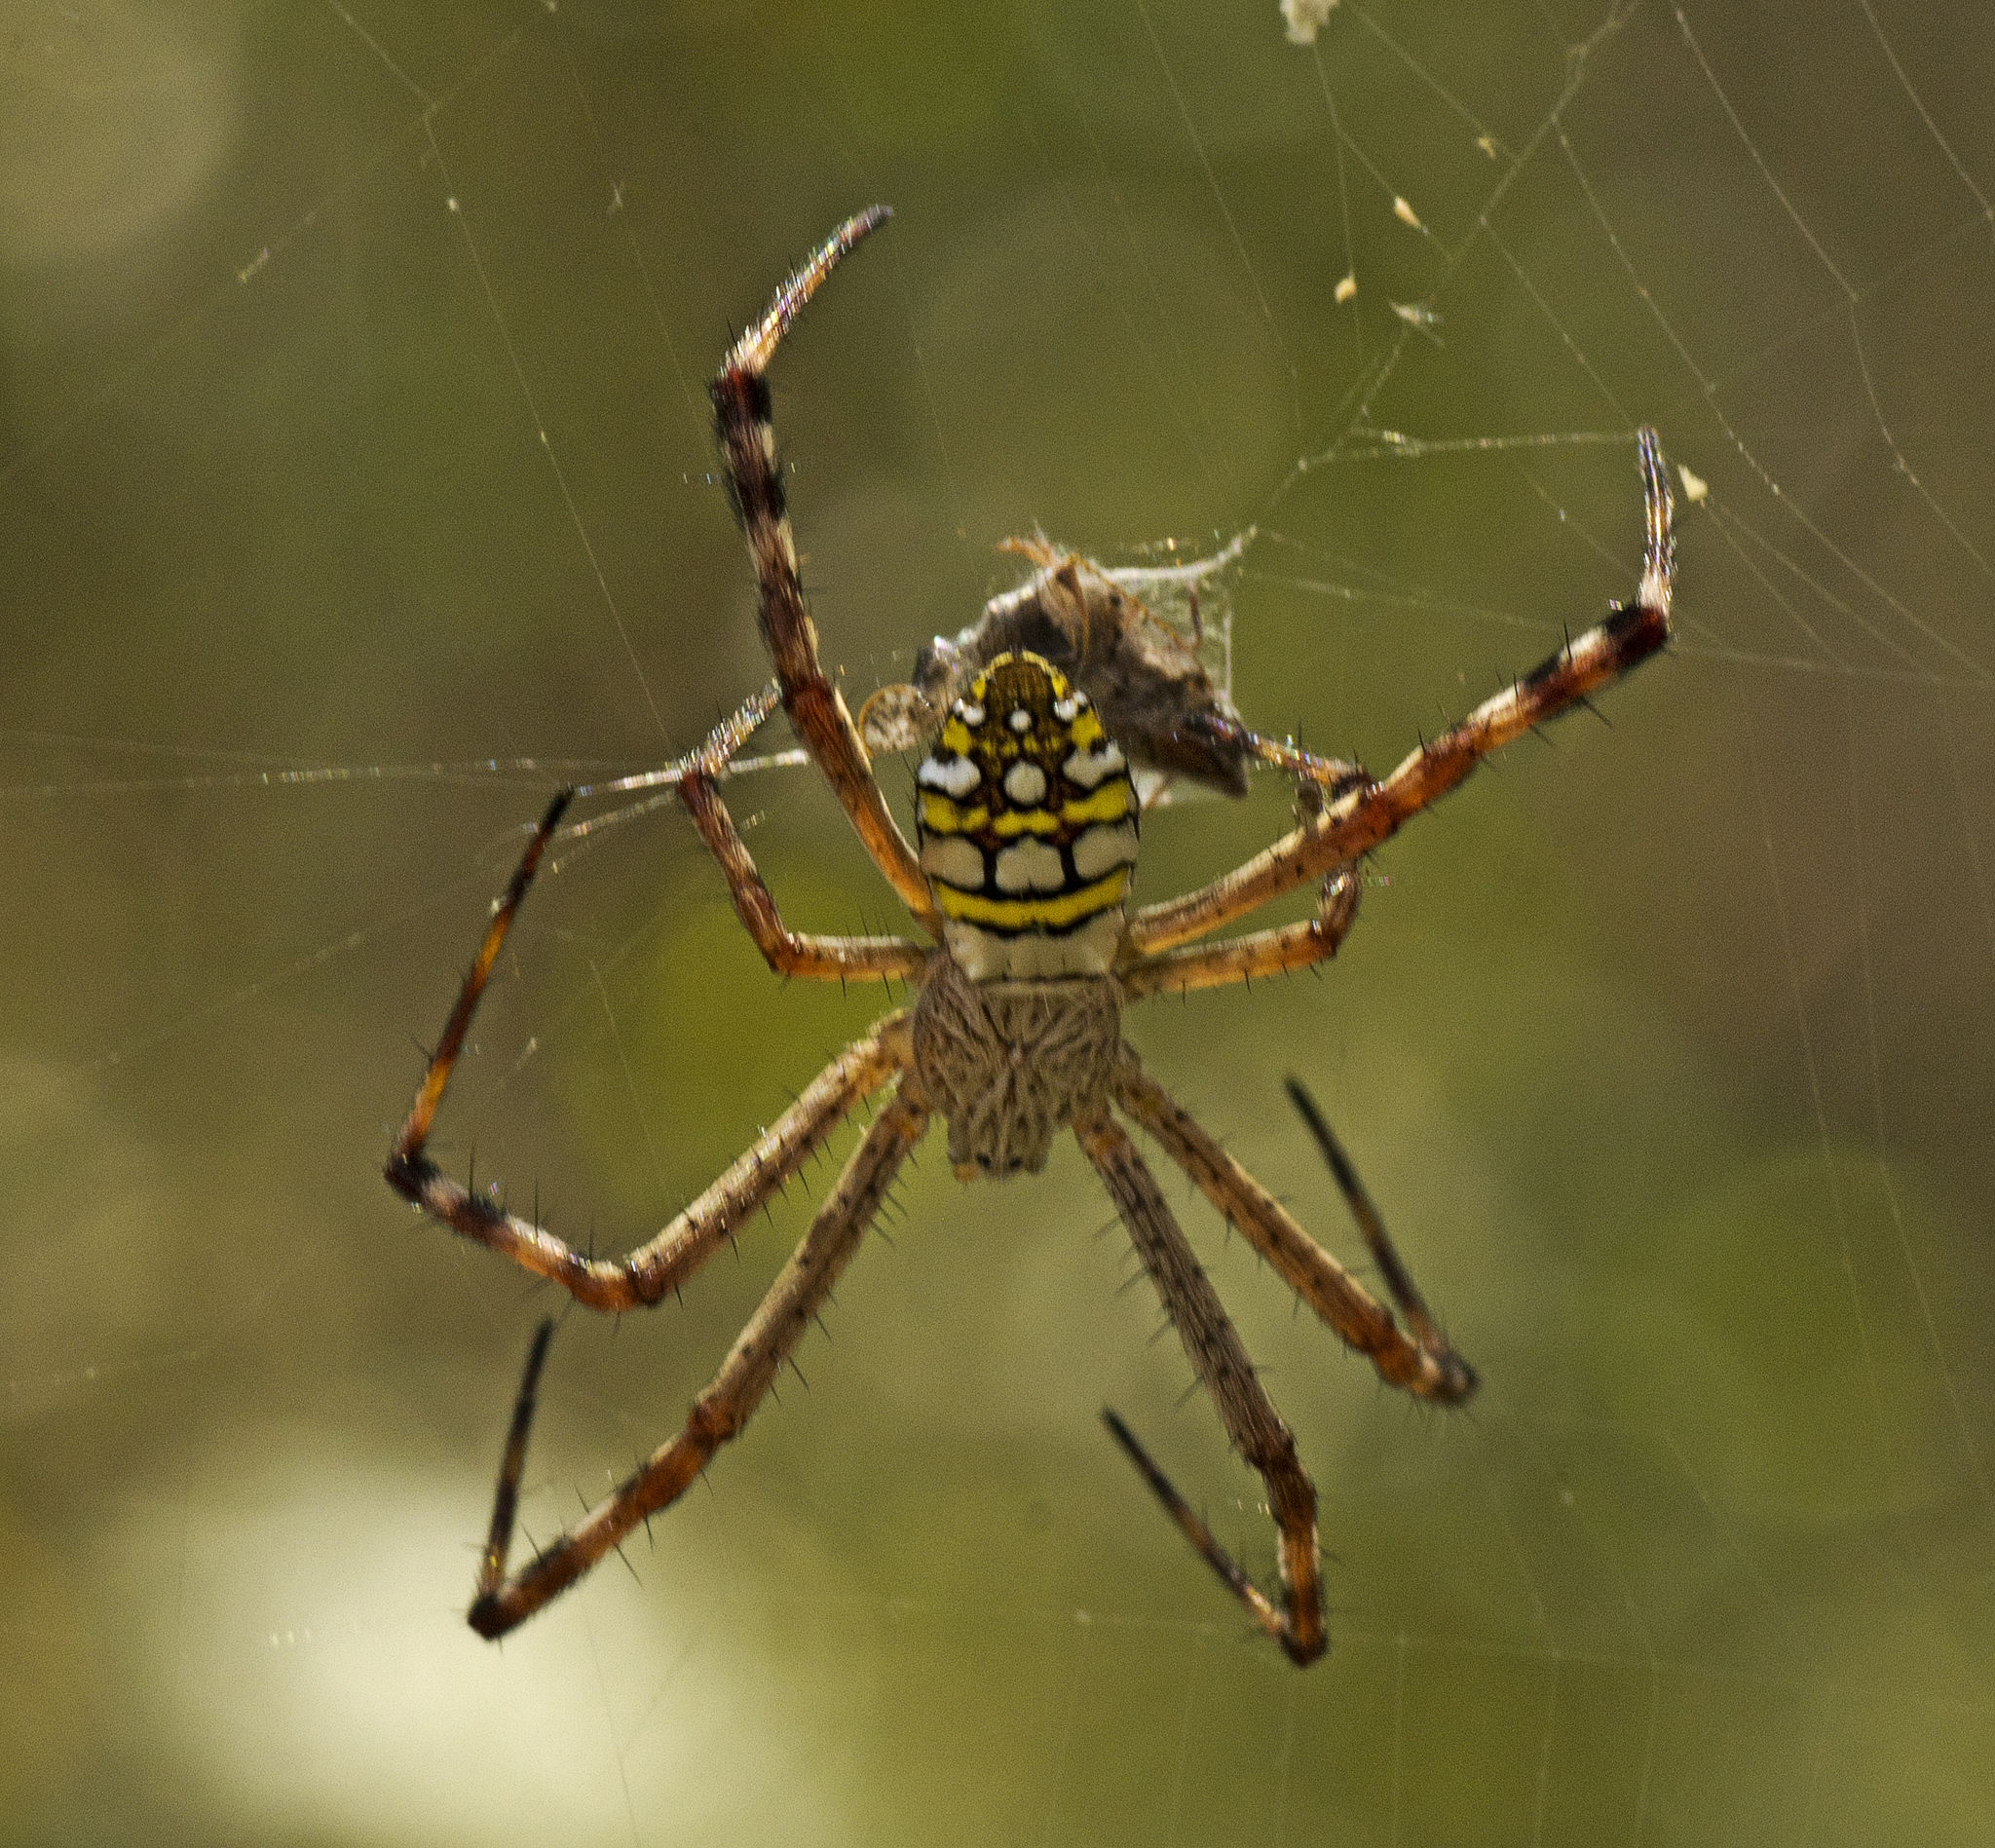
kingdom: Animalia
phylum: Arthropoda
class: Arachnida
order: Araneae
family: Araneidae
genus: Argiope
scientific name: Argiope picta
